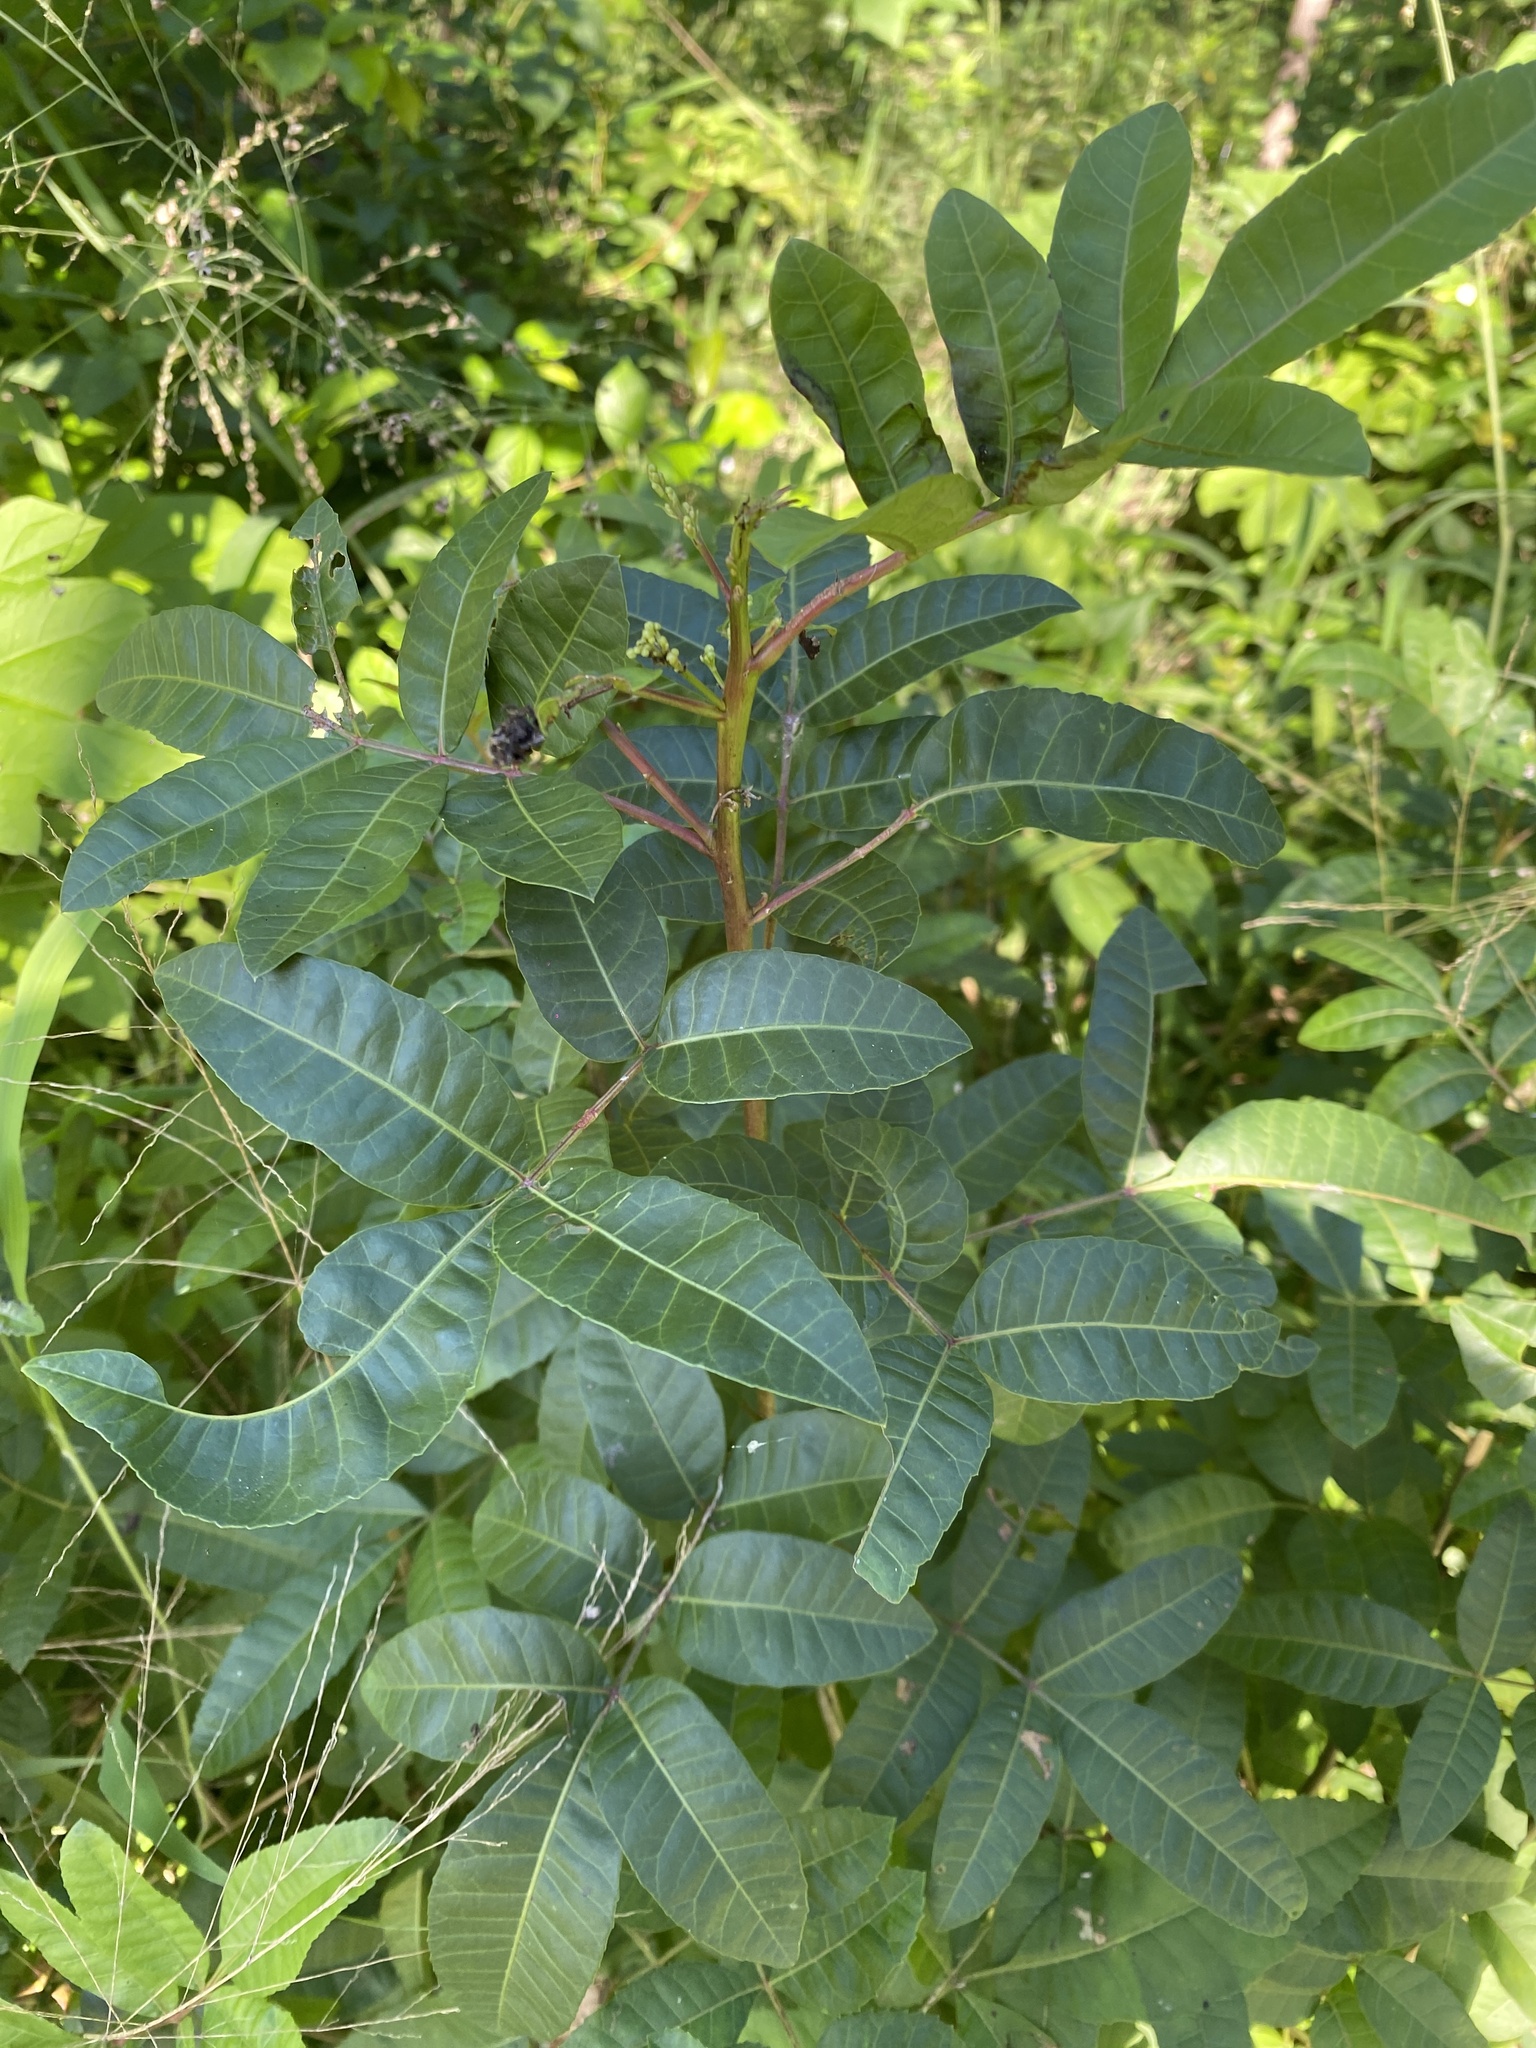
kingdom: Plantae
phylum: Tracheophyta
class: Magnoliopsida
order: Sapindales
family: Anacardiaceae
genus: Schinus
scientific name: Schinus terebinthifolia
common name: Brazilian peppertree
